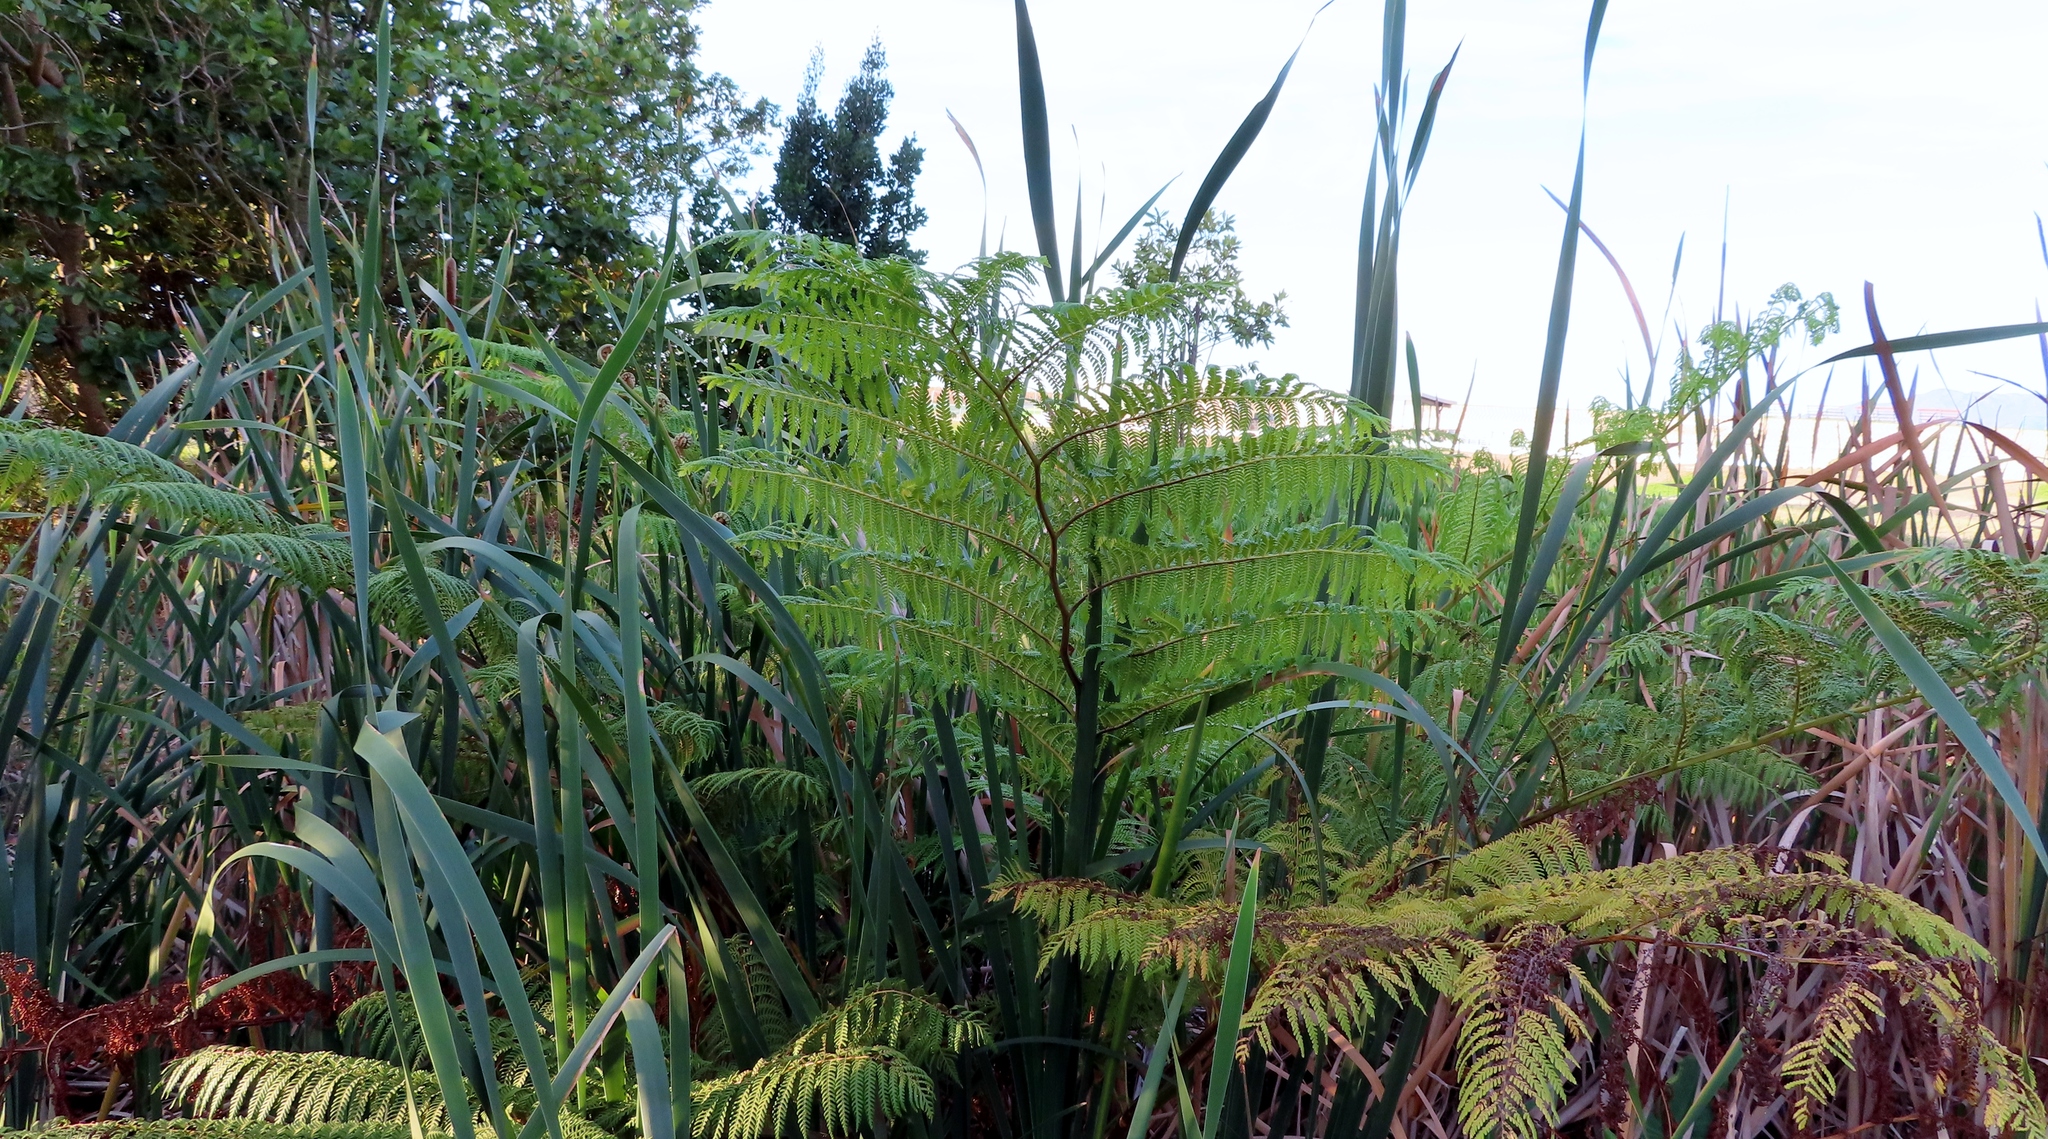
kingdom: Plantae
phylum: Tracheophyta
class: Polypodiopsida
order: Cyatheales
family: Cyatheaceae
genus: Sphaeropteris
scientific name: Sphaeropteris cooperi
